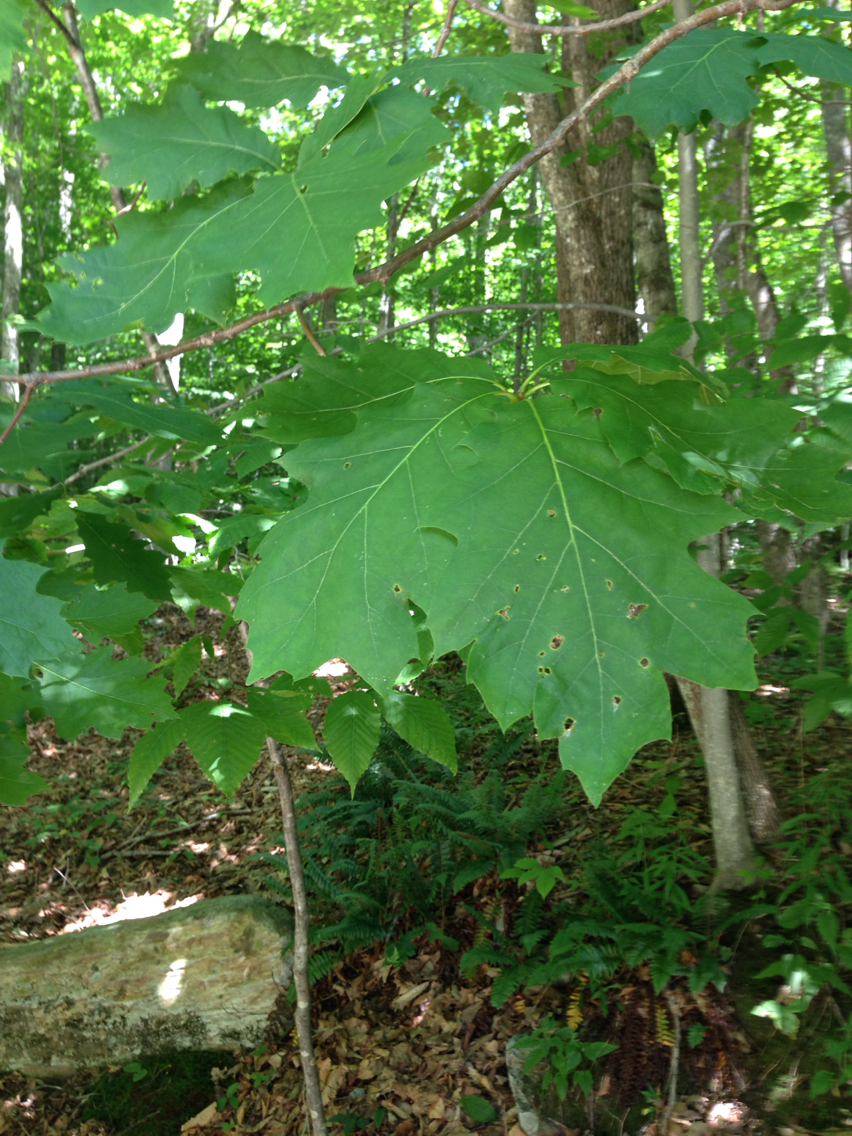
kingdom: Plantae
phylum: Tracheophyta
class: Magnoliopsida
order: Fagales
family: Fagaceae
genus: Quercus
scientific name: Quercus rubra
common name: Red oak
